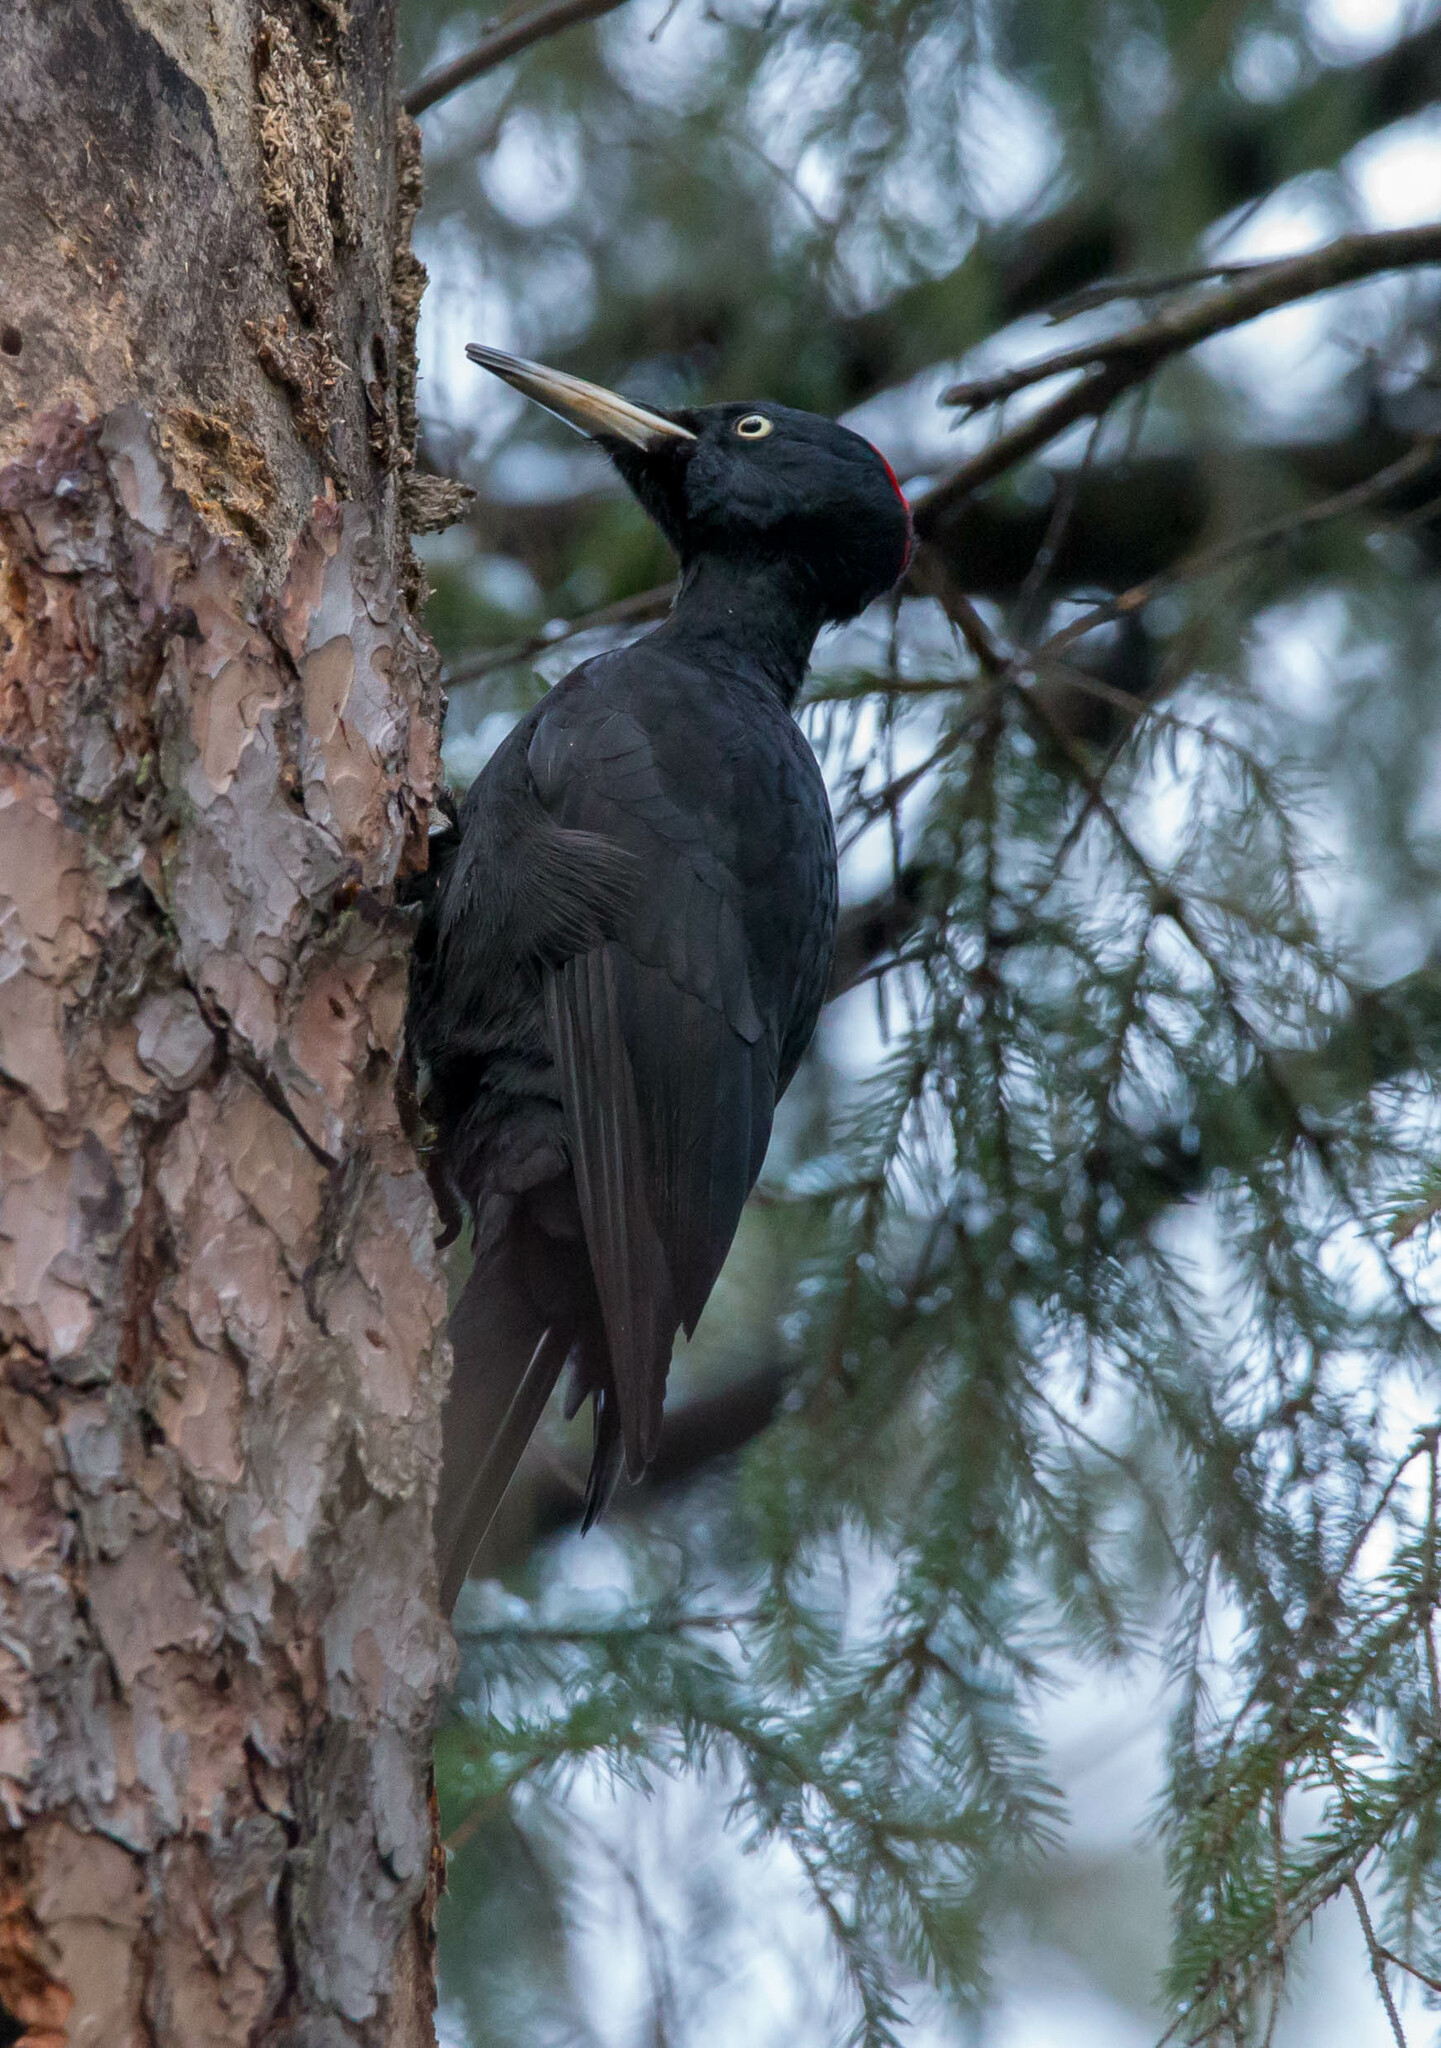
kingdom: Animalia
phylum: Chordata
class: Aves
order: Piciformes
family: Picidae
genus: Dryocopus
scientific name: Dryocopus martius
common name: Black woodpecker
